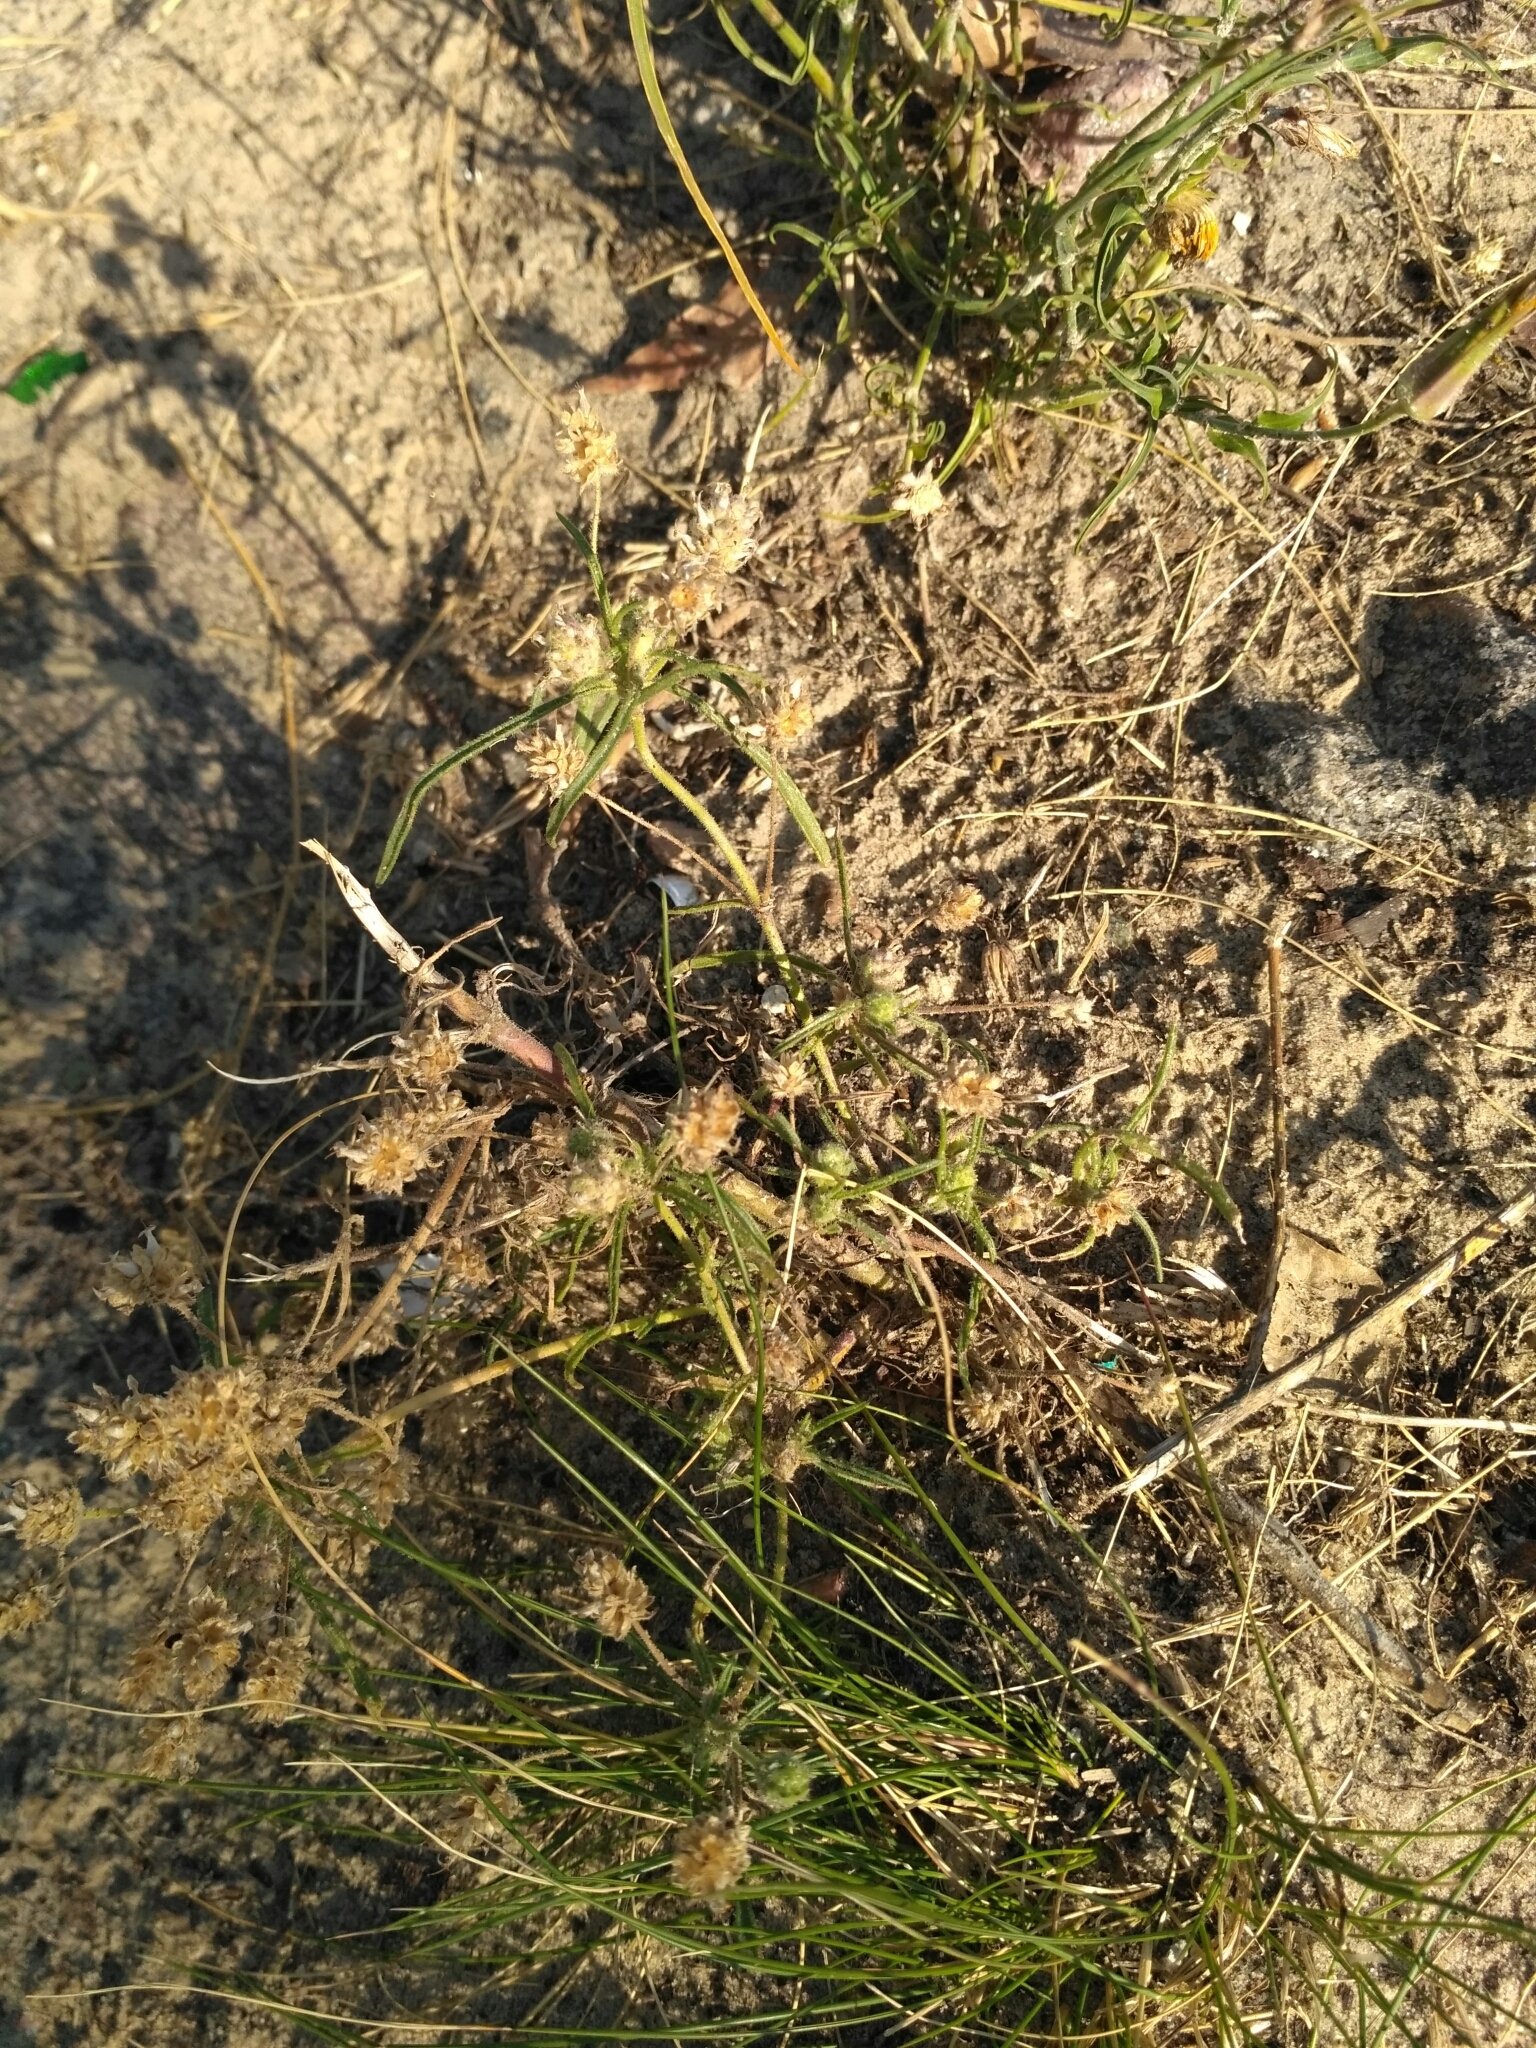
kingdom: Plantae
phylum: Tracheophyta
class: Magnoliopsida
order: Lamiales
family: Plantaginaceae
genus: Plantago
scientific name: Plantago arenaria
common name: Branched plantain
